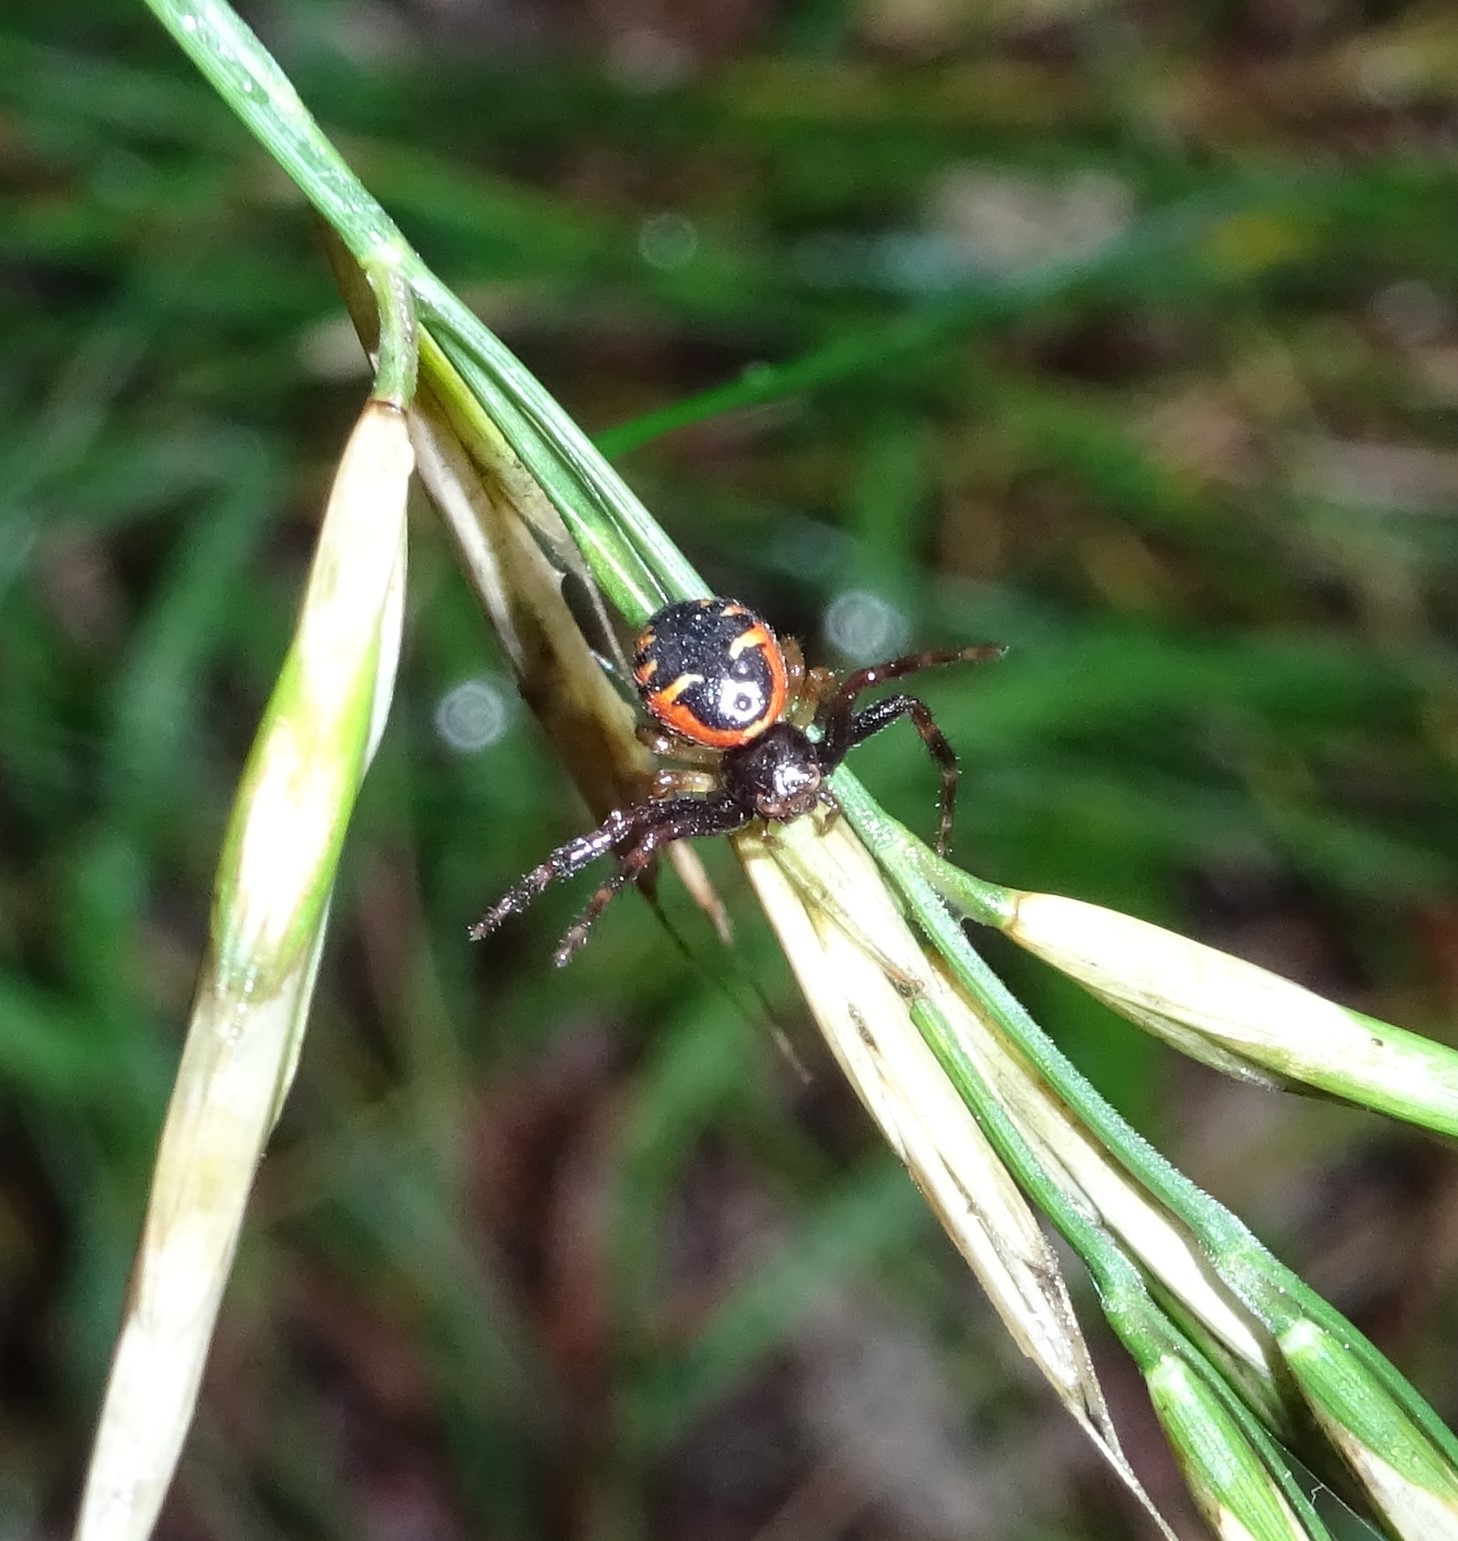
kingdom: Animalia
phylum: Arthropoda
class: Arachnida
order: Araneae
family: Thomisidae
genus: Synema
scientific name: Synema globosum
